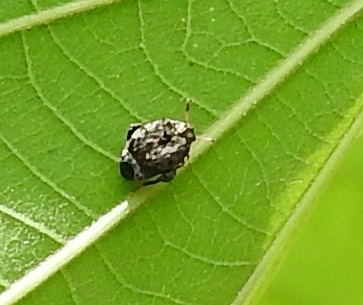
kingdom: Animalia
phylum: Arthropoda
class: Insecta
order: Coleoptera
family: Bruchidae
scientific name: Bruchidae
